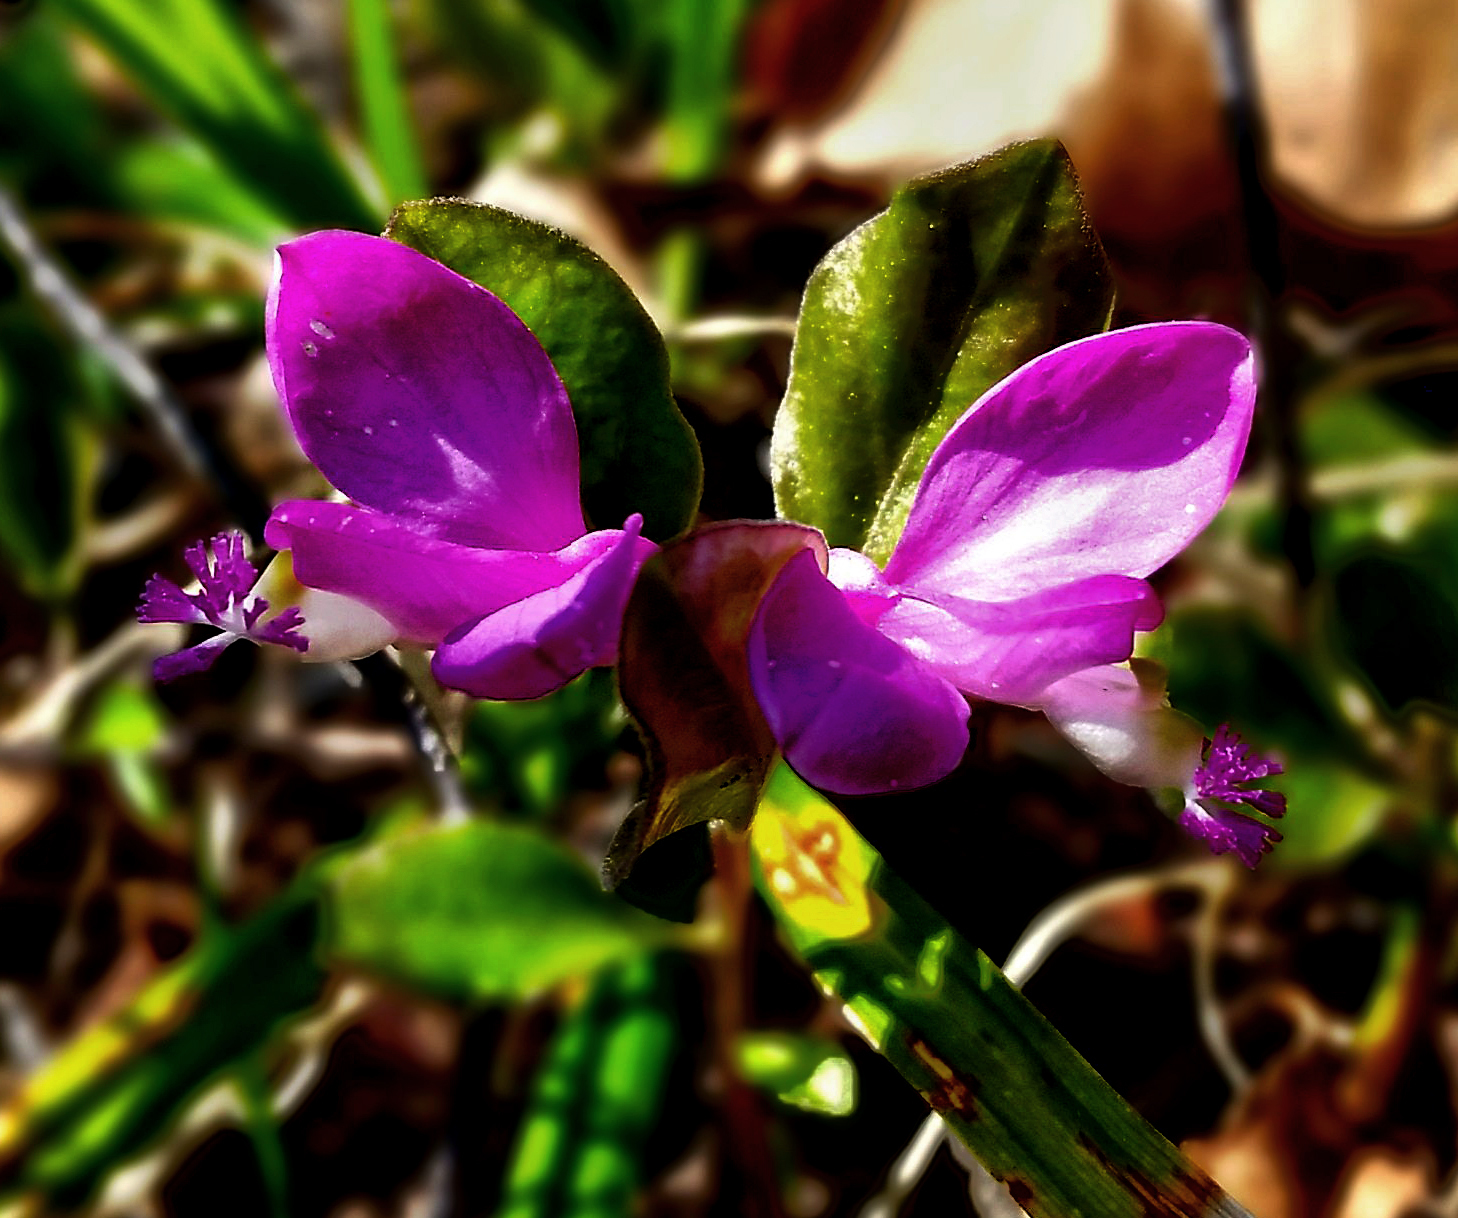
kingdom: Plantae
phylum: Tracheophyta
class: Magnoliopsida
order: Fabales
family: Polygalaceae
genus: Polygaloides
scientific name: Polygaloides paucifolia
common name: Bird-on-the-wing
